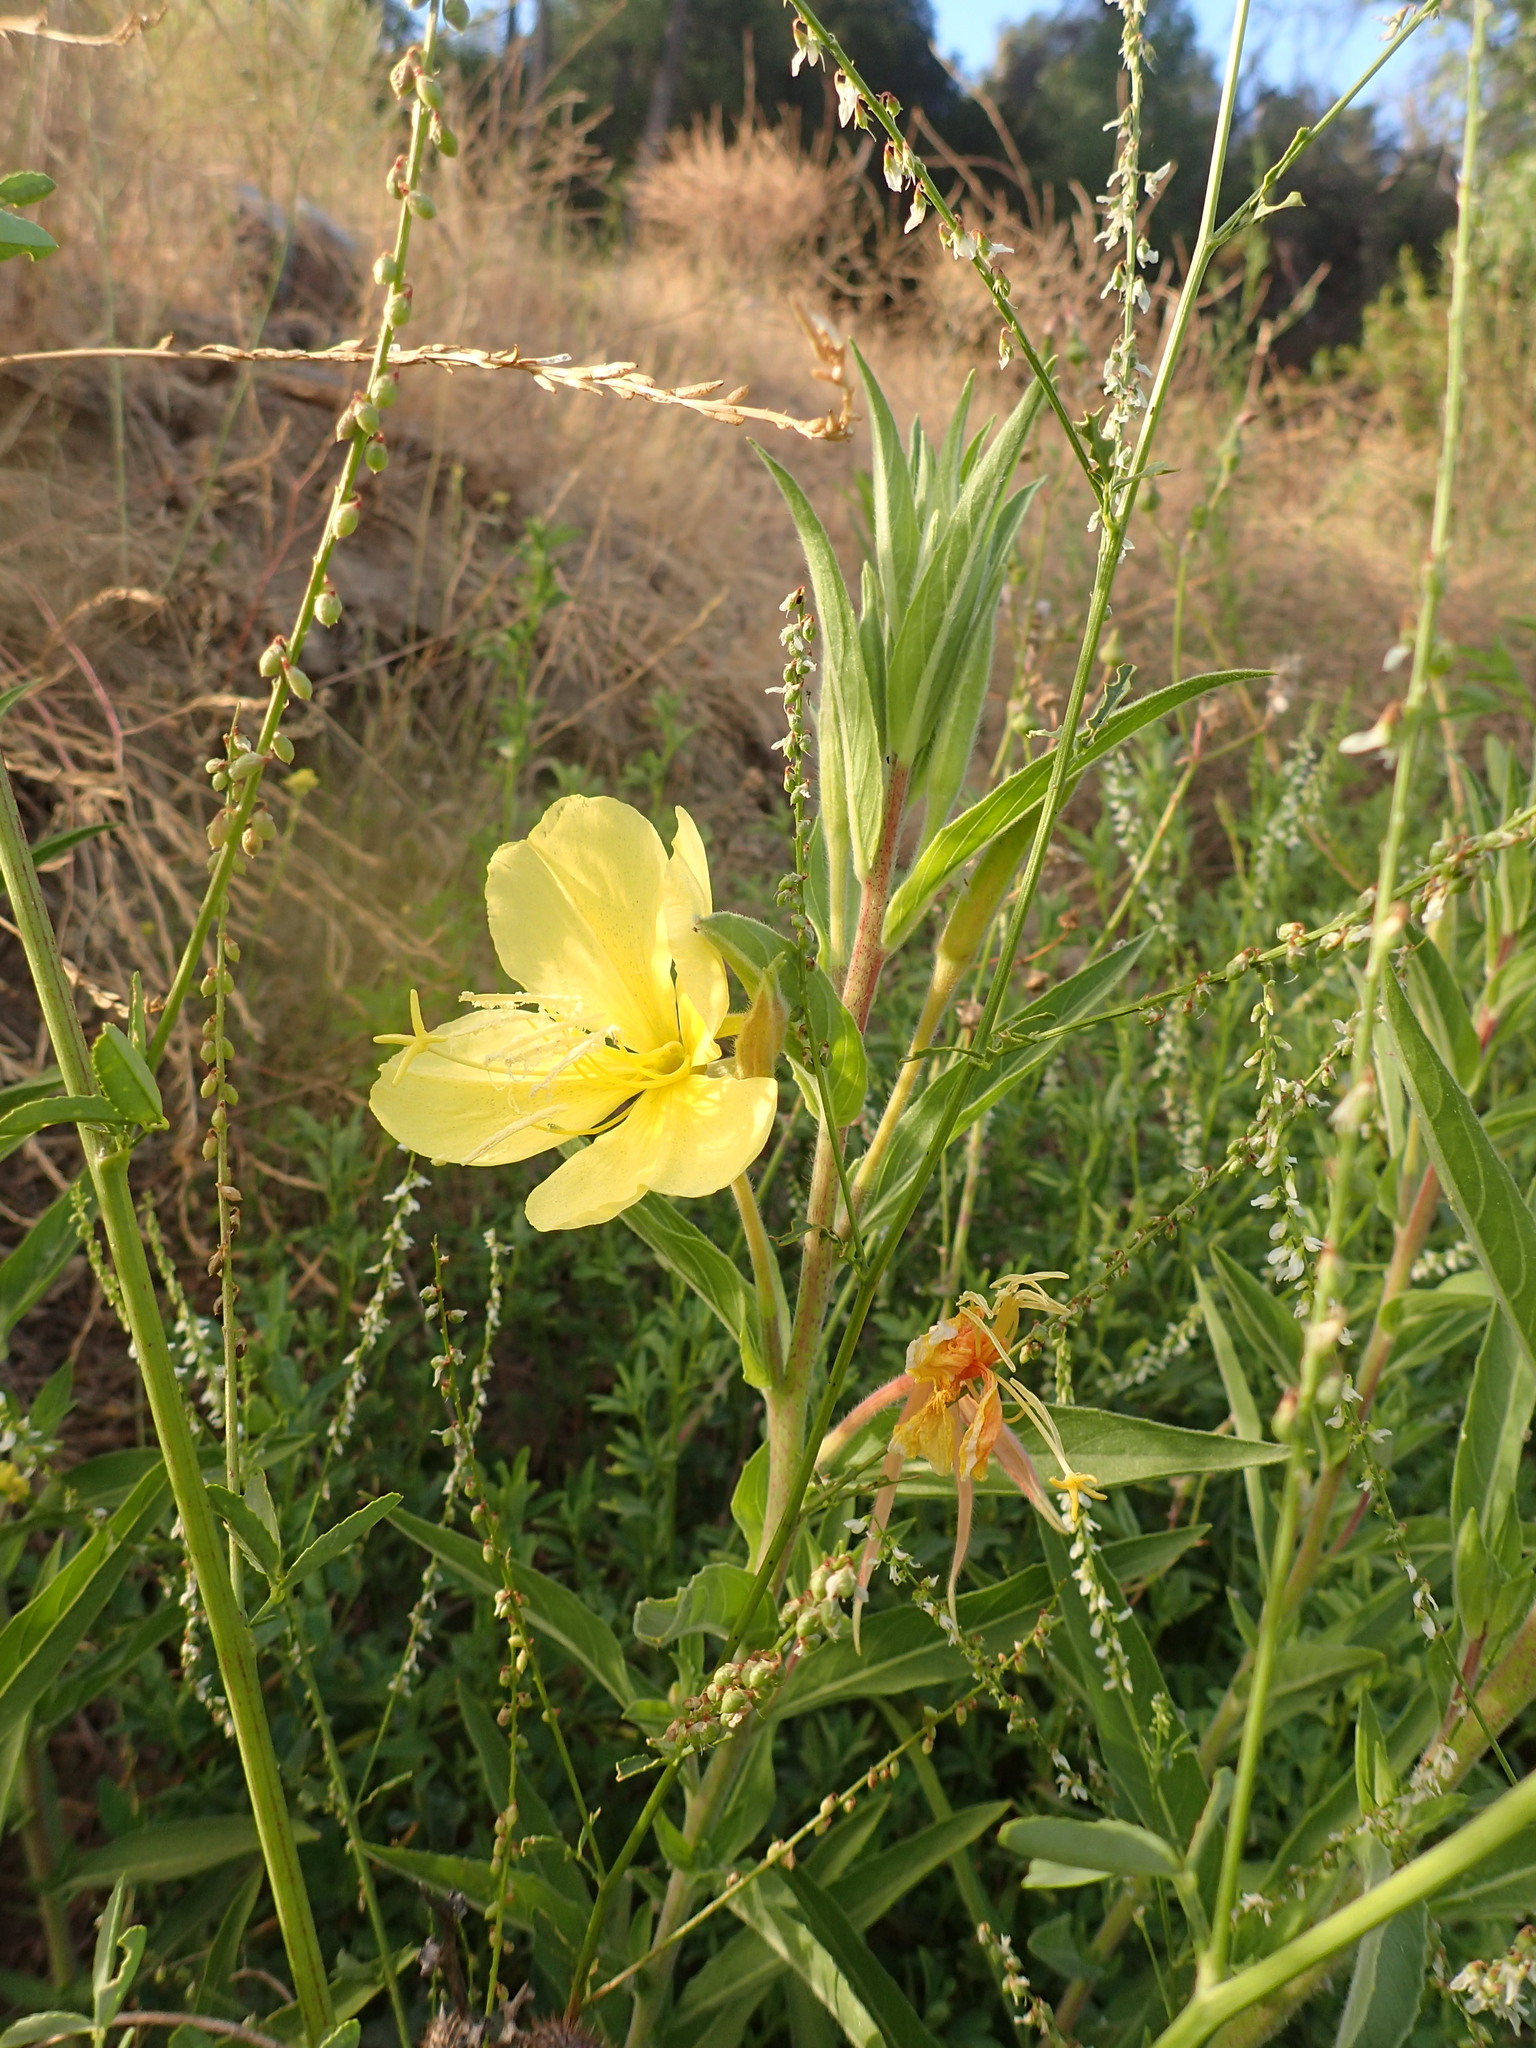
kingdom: Plantae
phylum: Tracheophyta
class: Magnoliopsida
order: Myrtales
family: Onagraceae
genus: Oenothera
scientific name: Oenothera elata
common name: Hooker's evening-primrose
